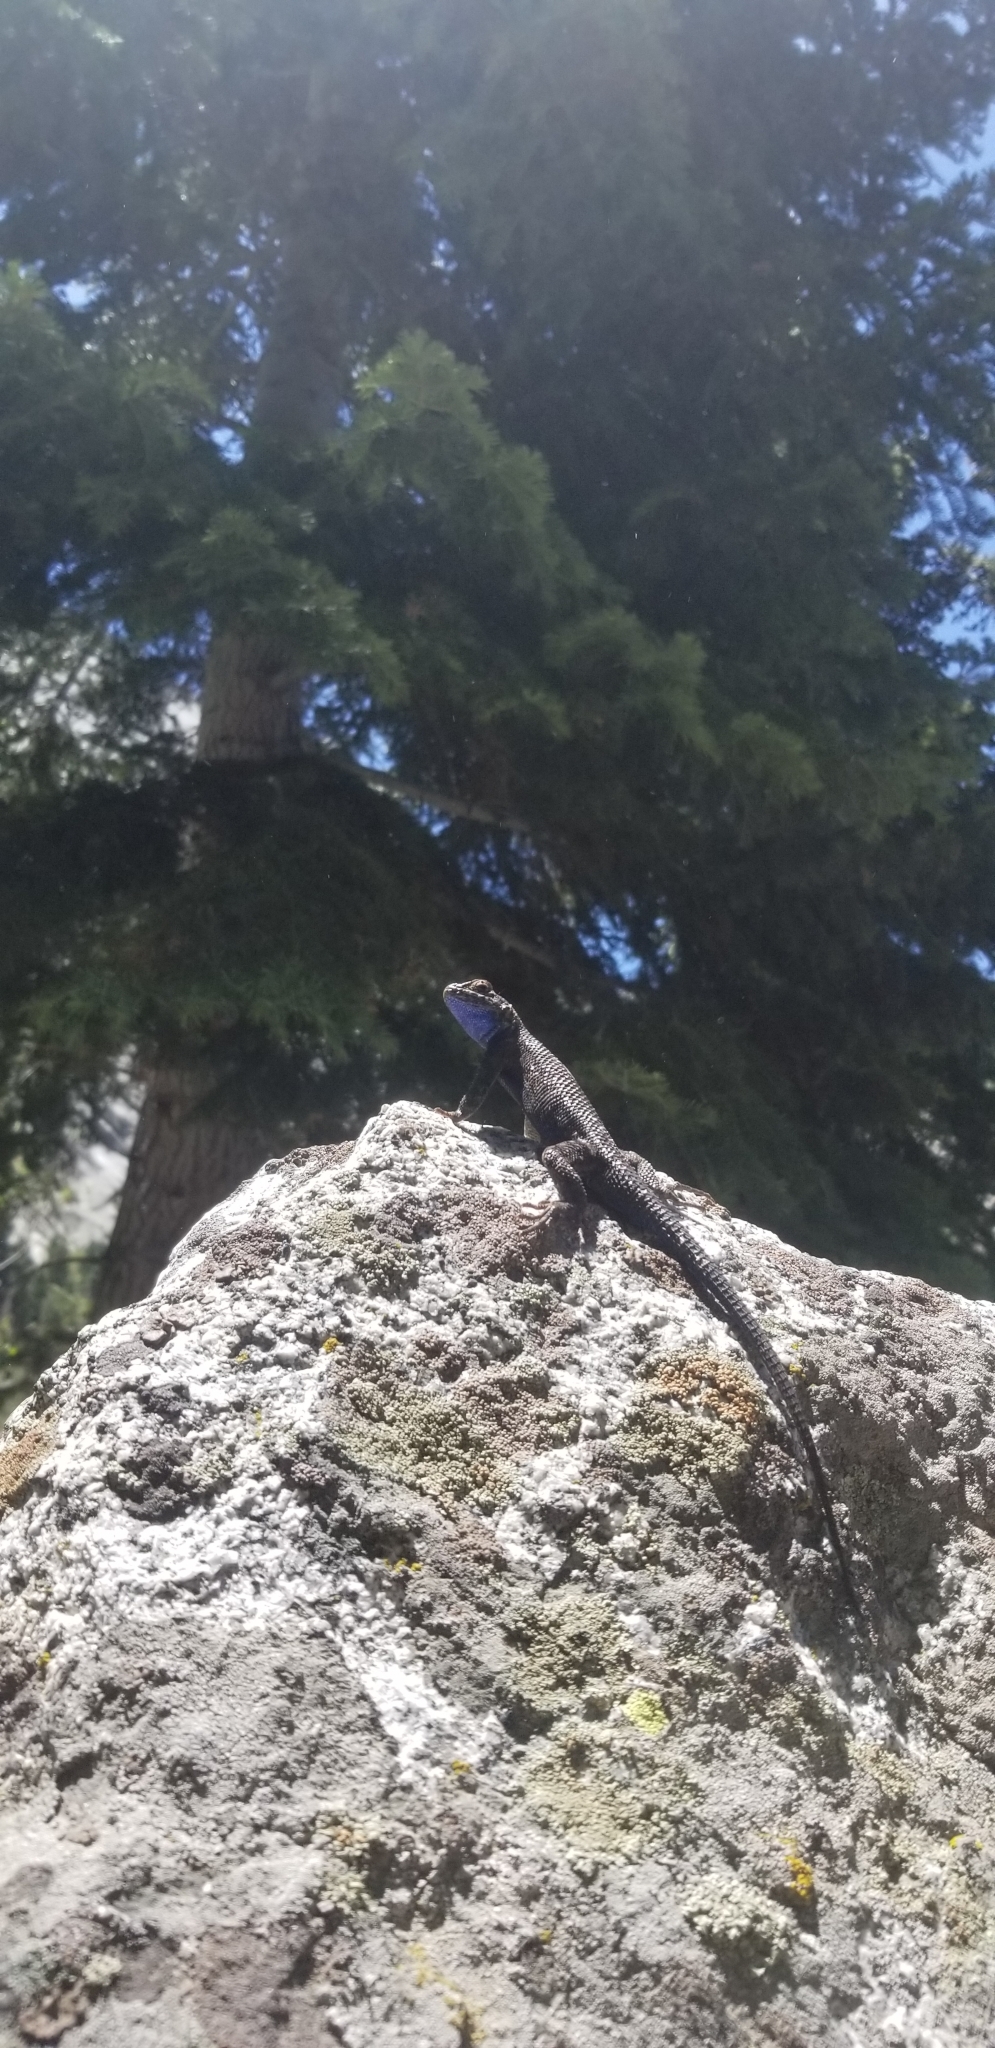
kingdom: Animalia
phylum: Chordata
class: Squamata
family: Phrynosomatidae
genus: Sceloporus
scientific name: Sceloporus occidentalis
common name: Western fence lizard
